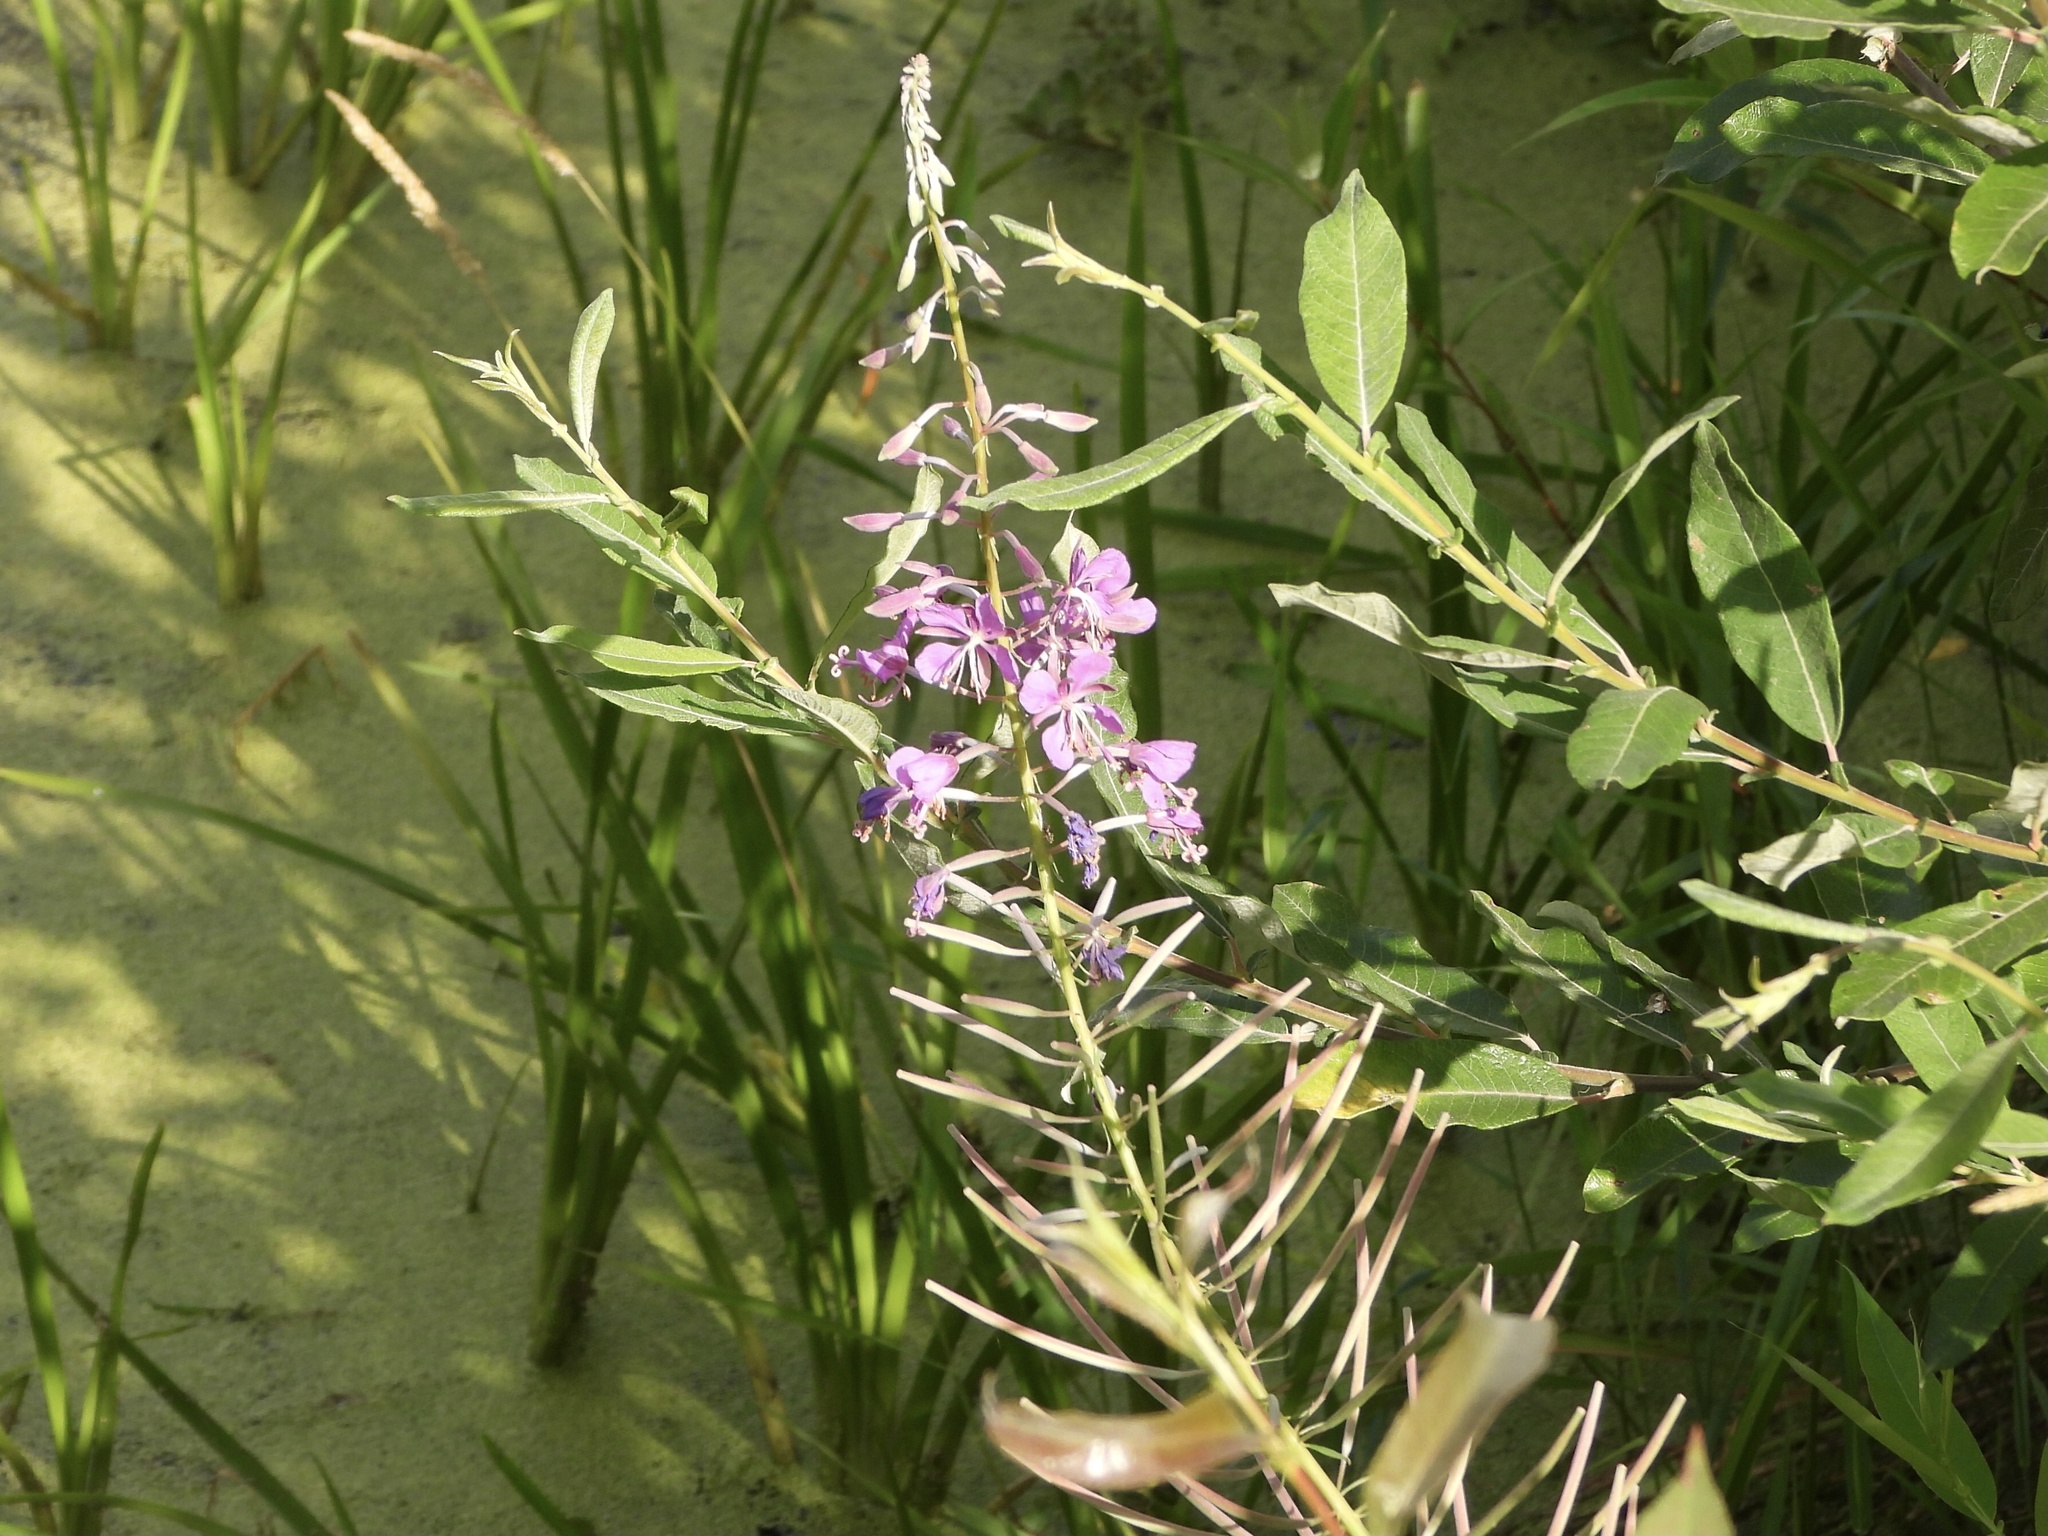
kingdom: Plantae
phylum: Tracheophyta
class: Magnoliopsida
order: Myrtales
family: Onagraceae
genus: Chamaenerion
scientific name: Chamaenerion angustifolium
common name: Fireweed
